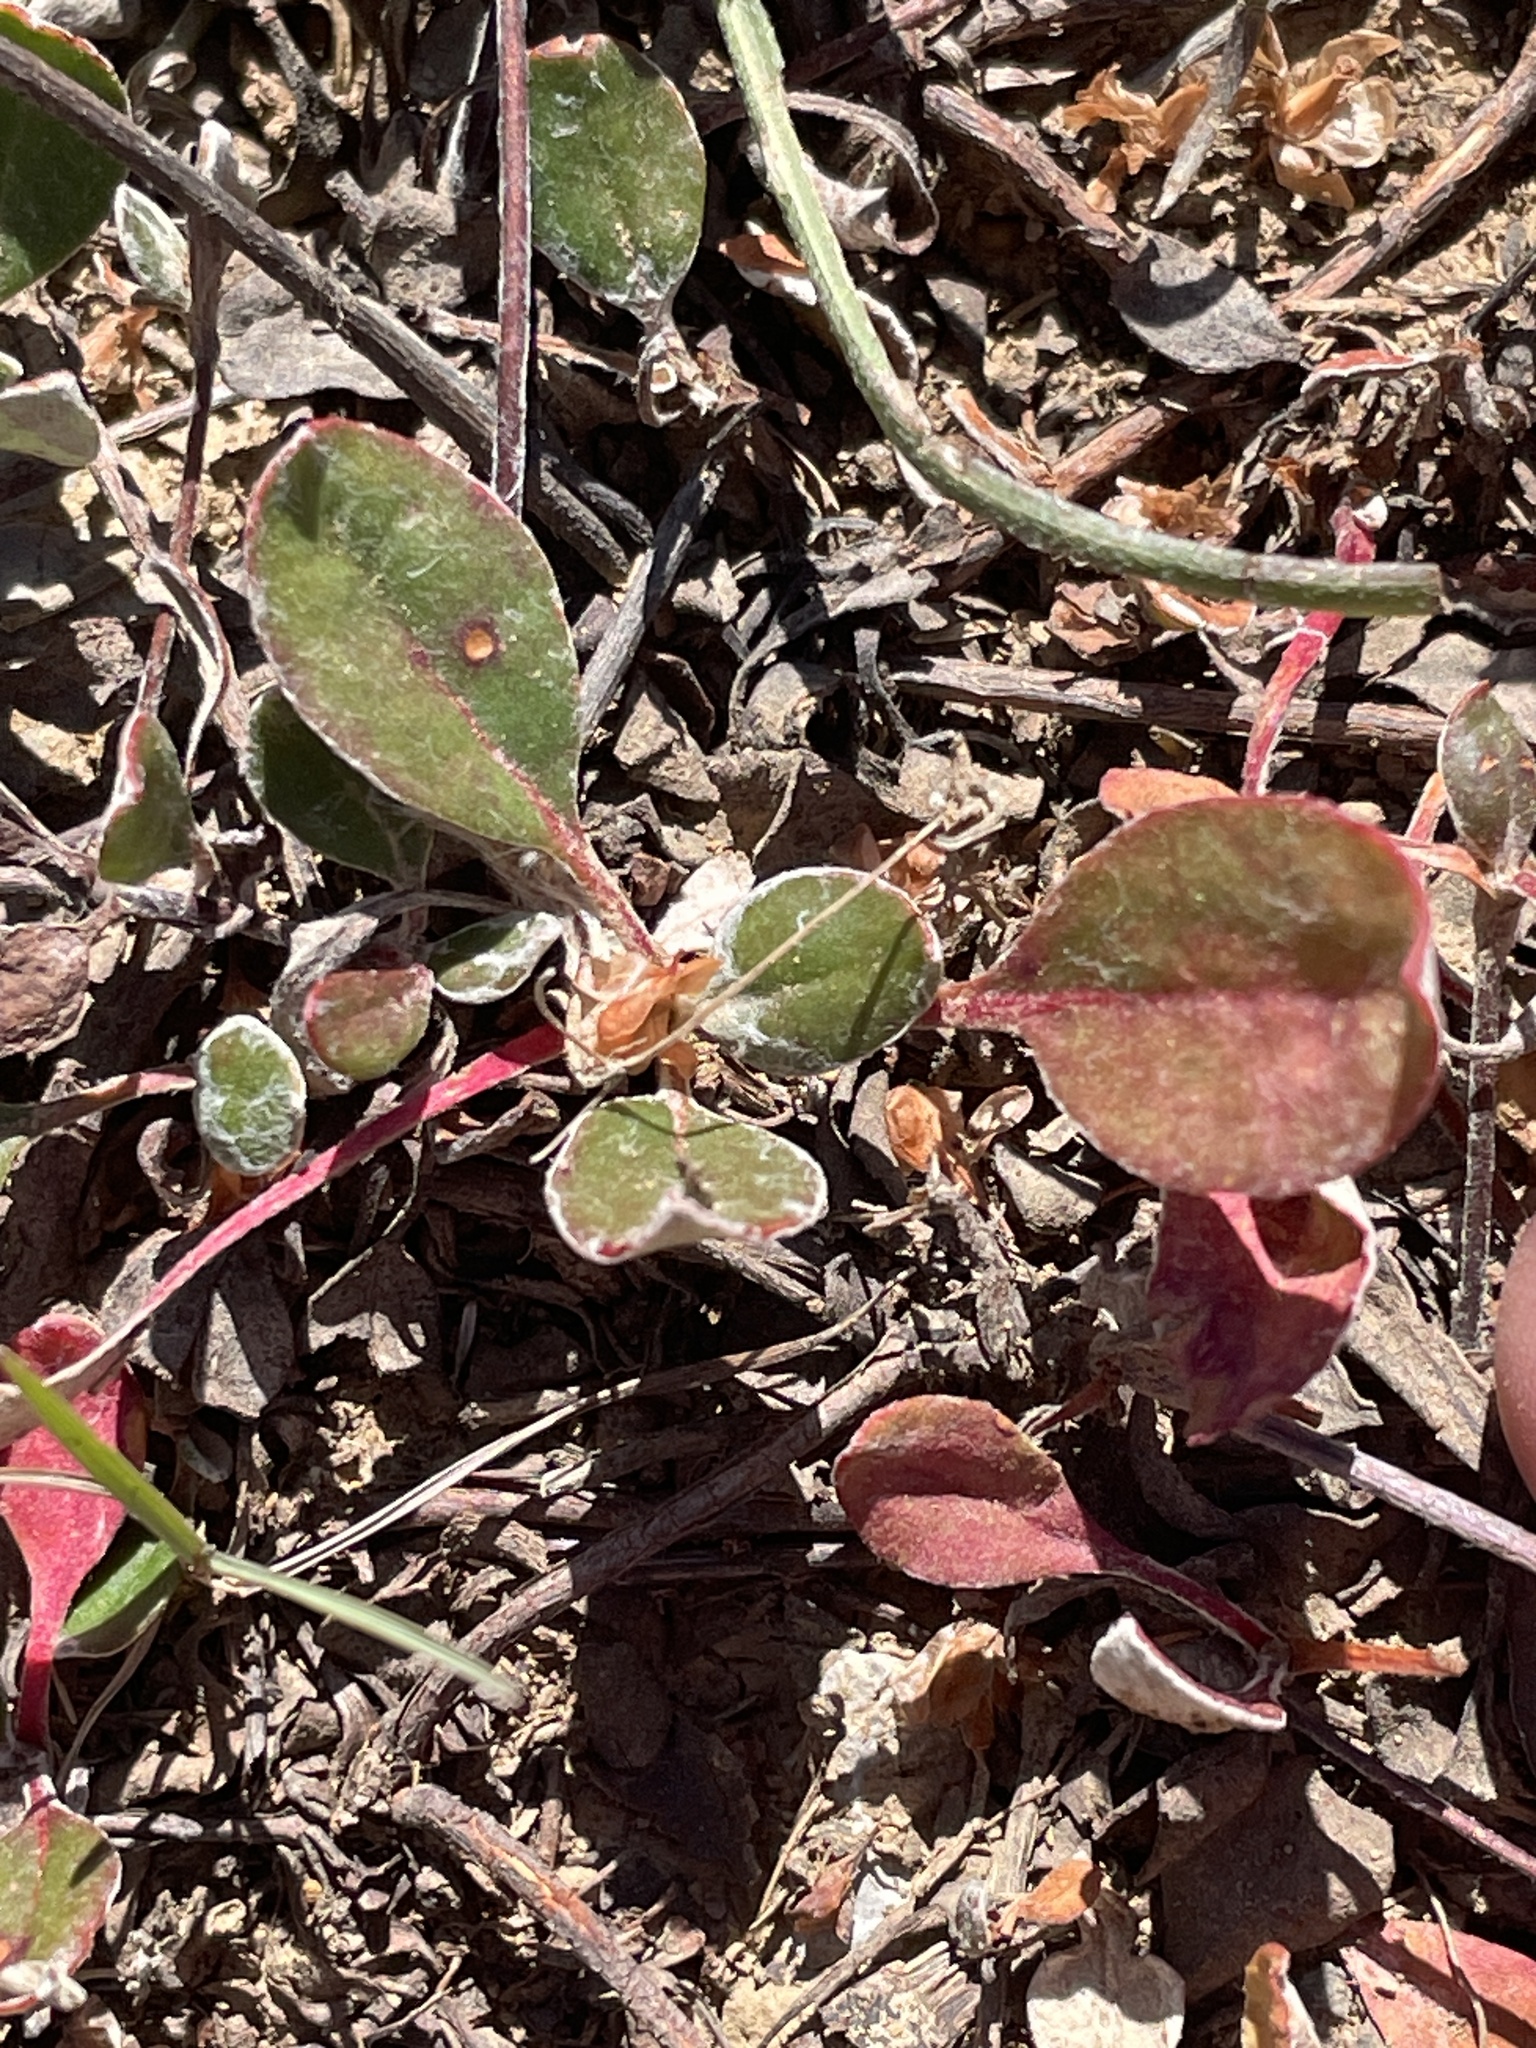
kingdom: Plantae
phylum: Tracheophyta
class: Magnoliopsida
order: Caryophyllales
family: Polygonaceae
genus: Eriogonum
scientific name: Eriogonum umbellatum
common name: Sulfur-buckwheat
